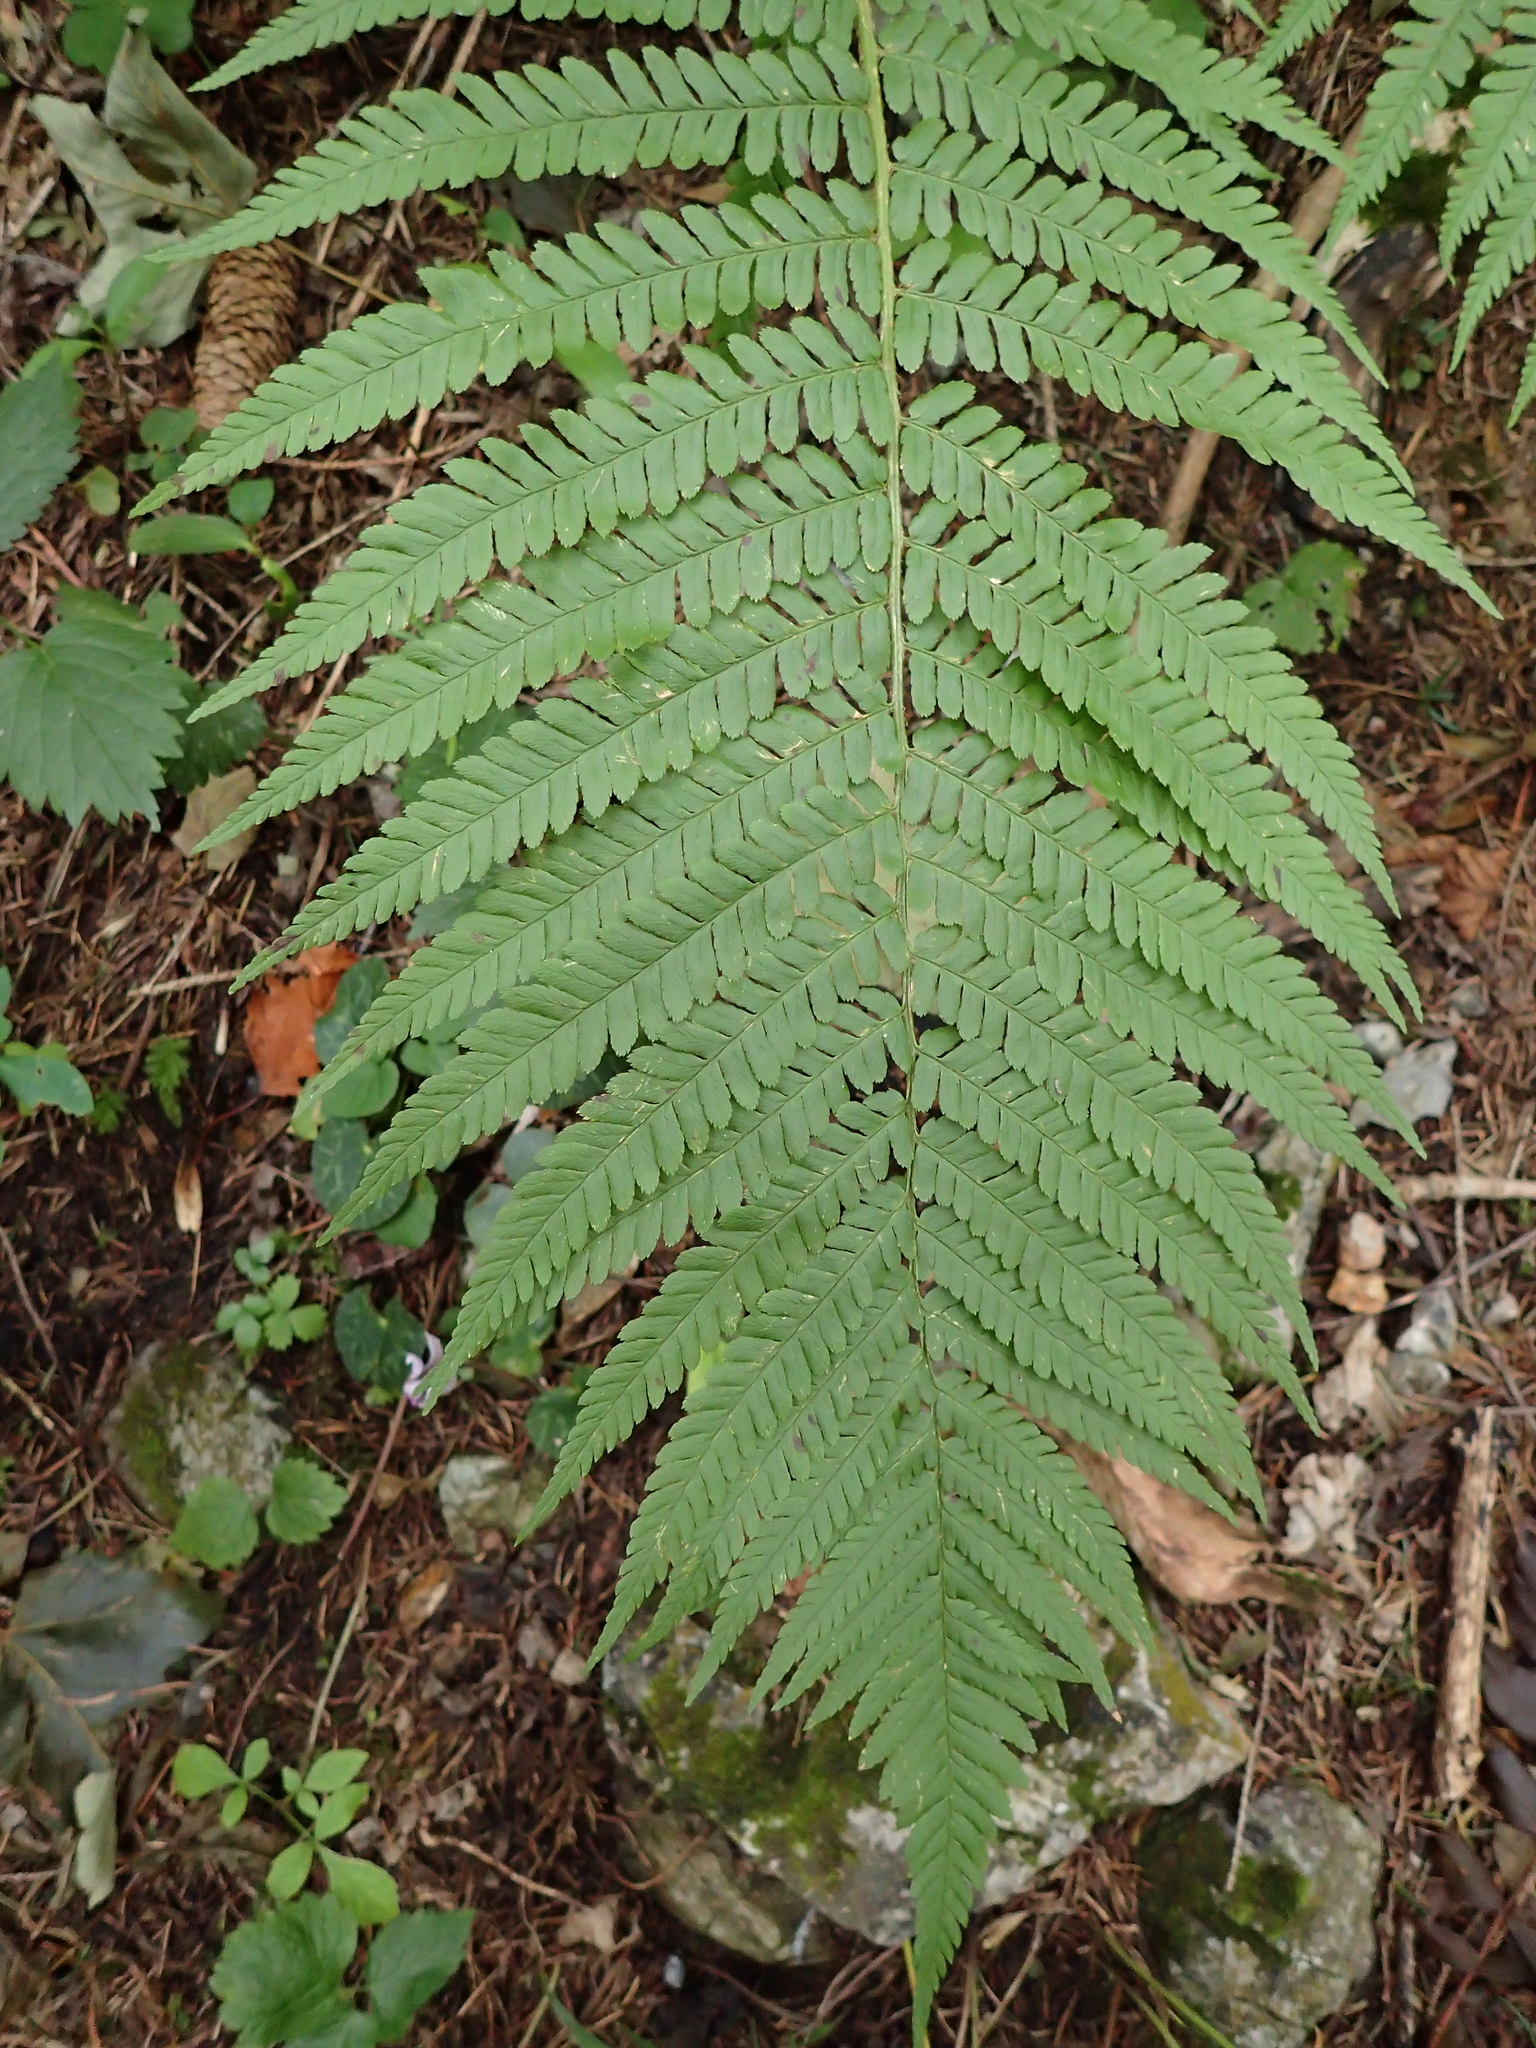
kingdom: Plantae
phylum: Tracheophyta
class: Polypodiopsida
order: Polypodiales
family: Dryopteridaceae
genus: Dryopteris
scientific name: Dryopteris filix-mas
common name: Male fern
